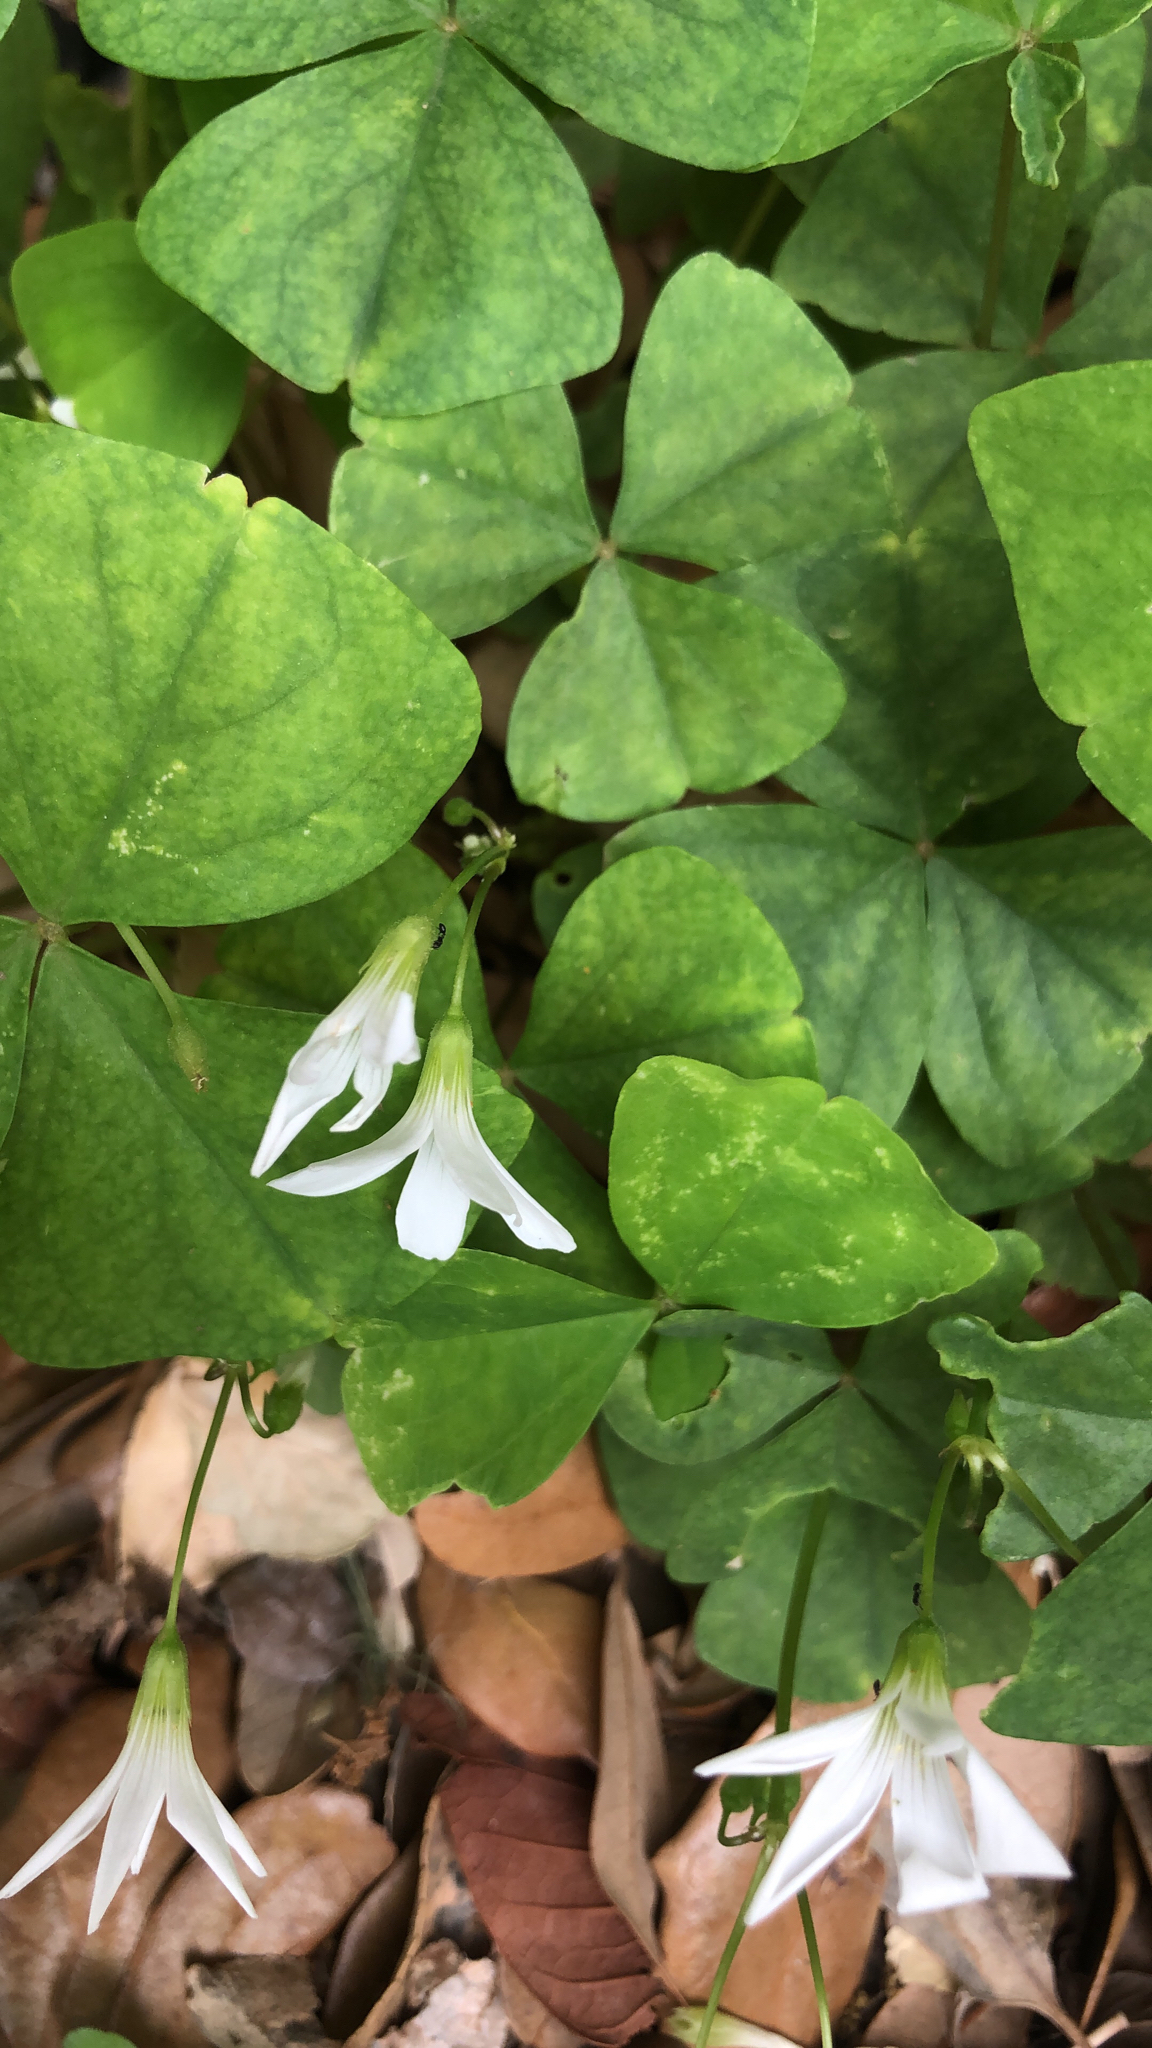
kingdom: Plantae
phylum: Tracheophyta
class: Magnoliopsida
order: Oxalidales
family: Oxalidaceae
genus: Oxalis
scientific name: Oxalis triangularis
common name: Wood sorrel
